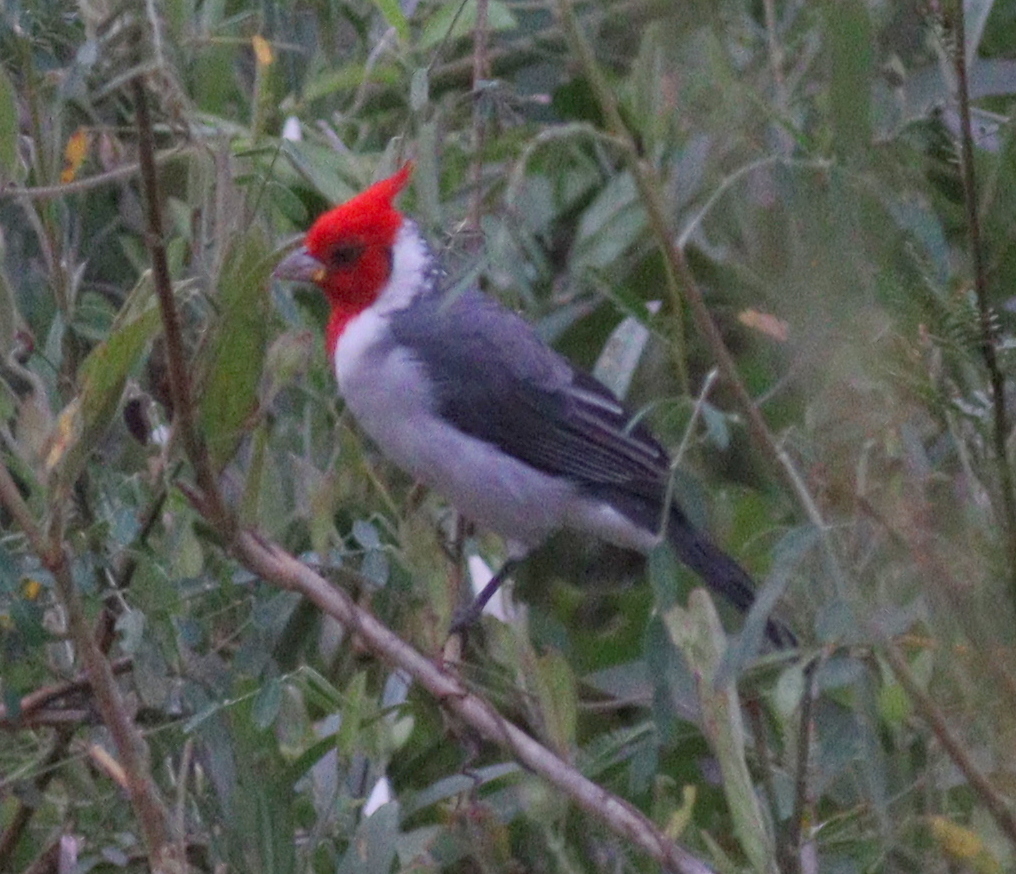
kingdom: Animalia
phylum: Chordata
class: Aves
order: Passeriformes
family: Thraupidae
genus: Paroaria
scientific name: Paroaria coronata
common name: Red-crested cardinal
